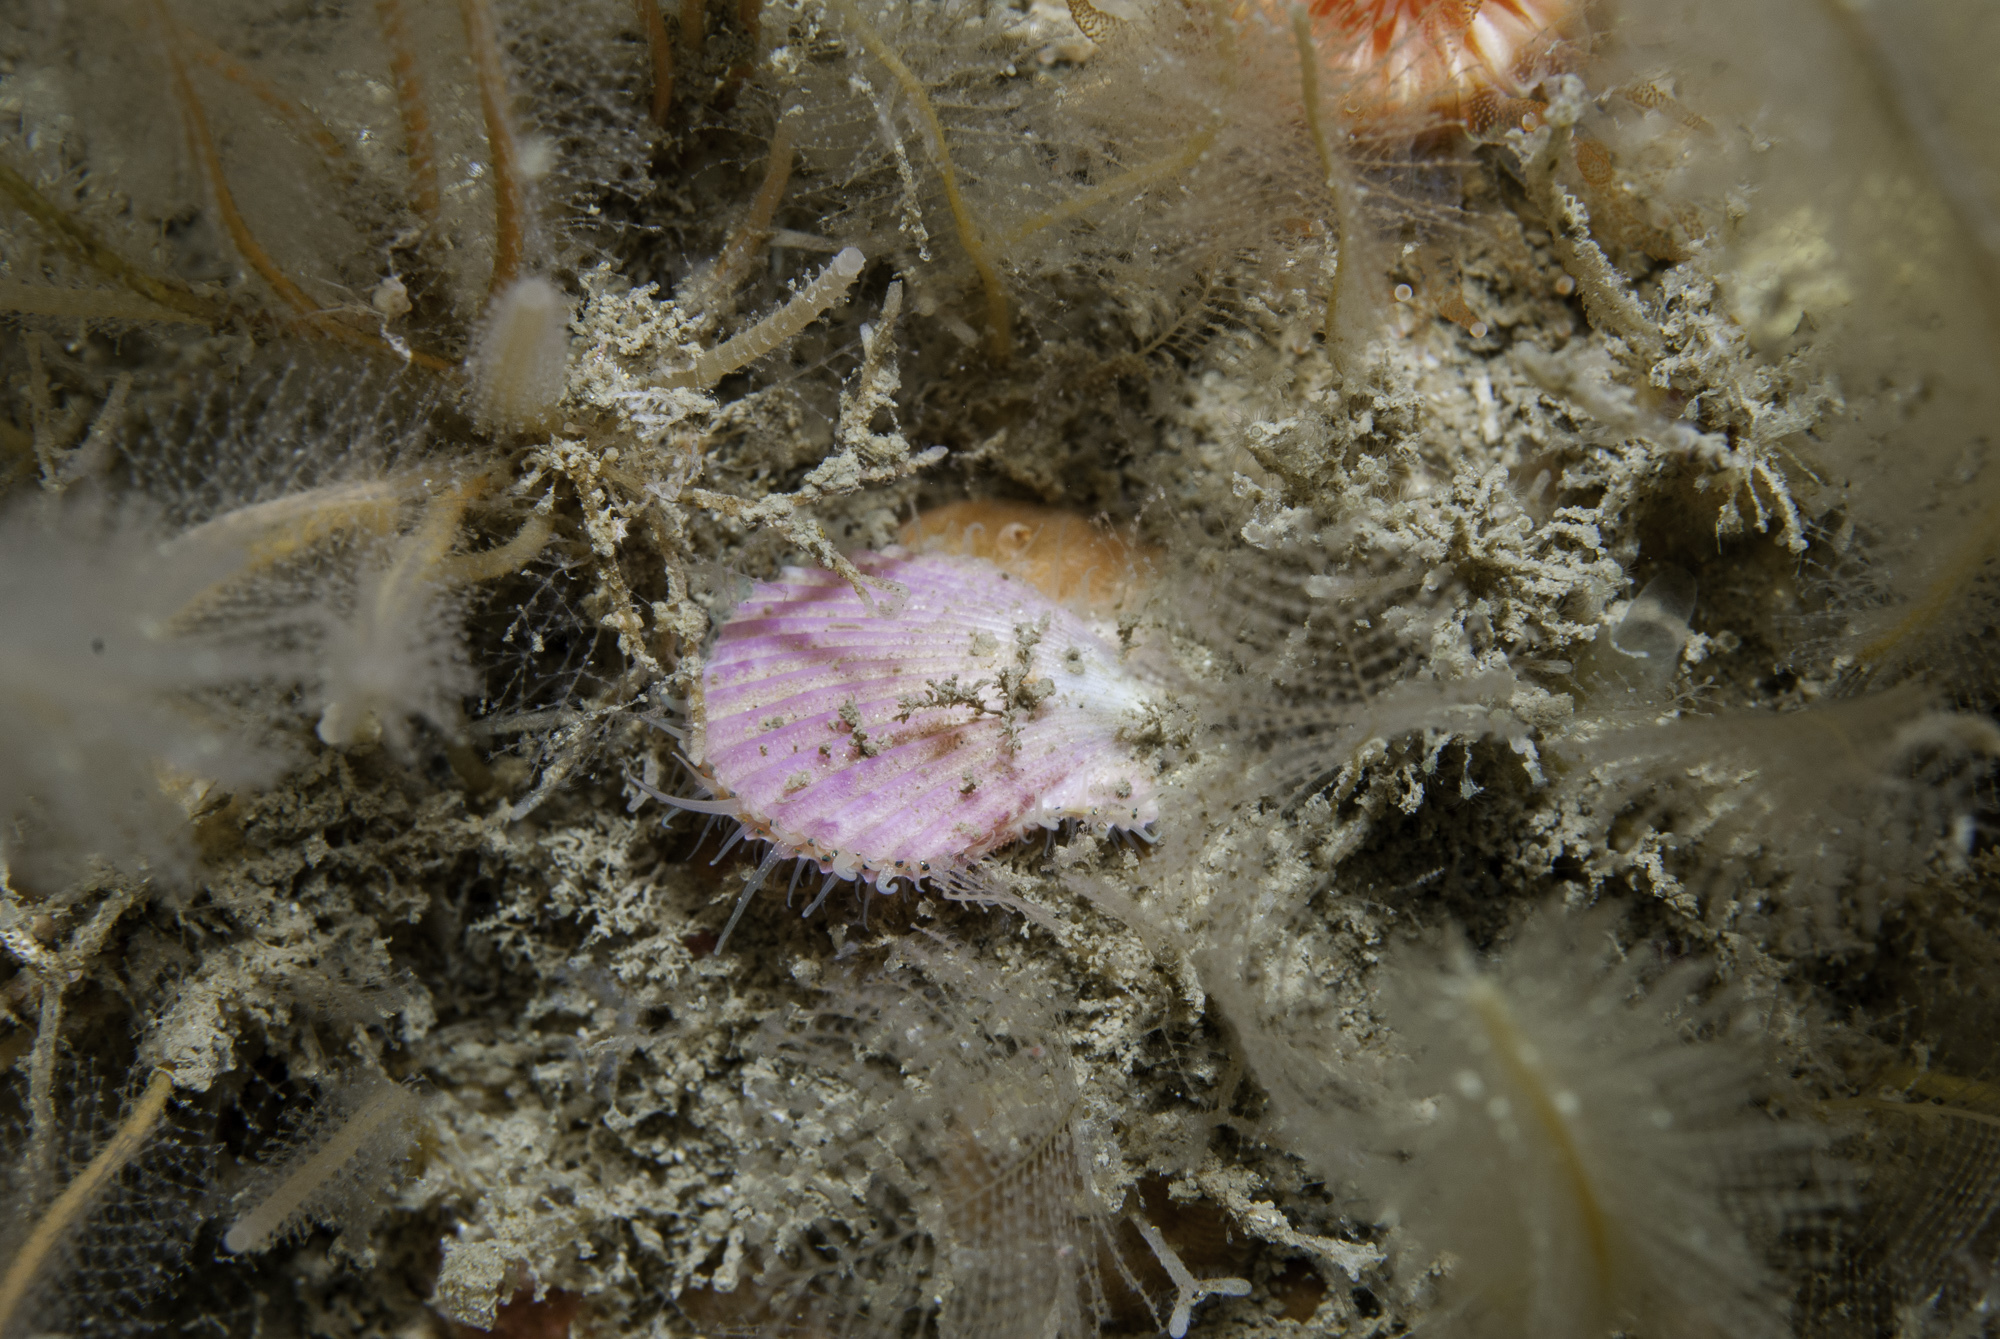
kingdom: Animalia
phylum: Mollusca
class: Bivalvia
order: Pectinida
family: Pectinidae
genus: Aequipecten
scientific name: Aequipecten opercularis
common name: Queen scallop
